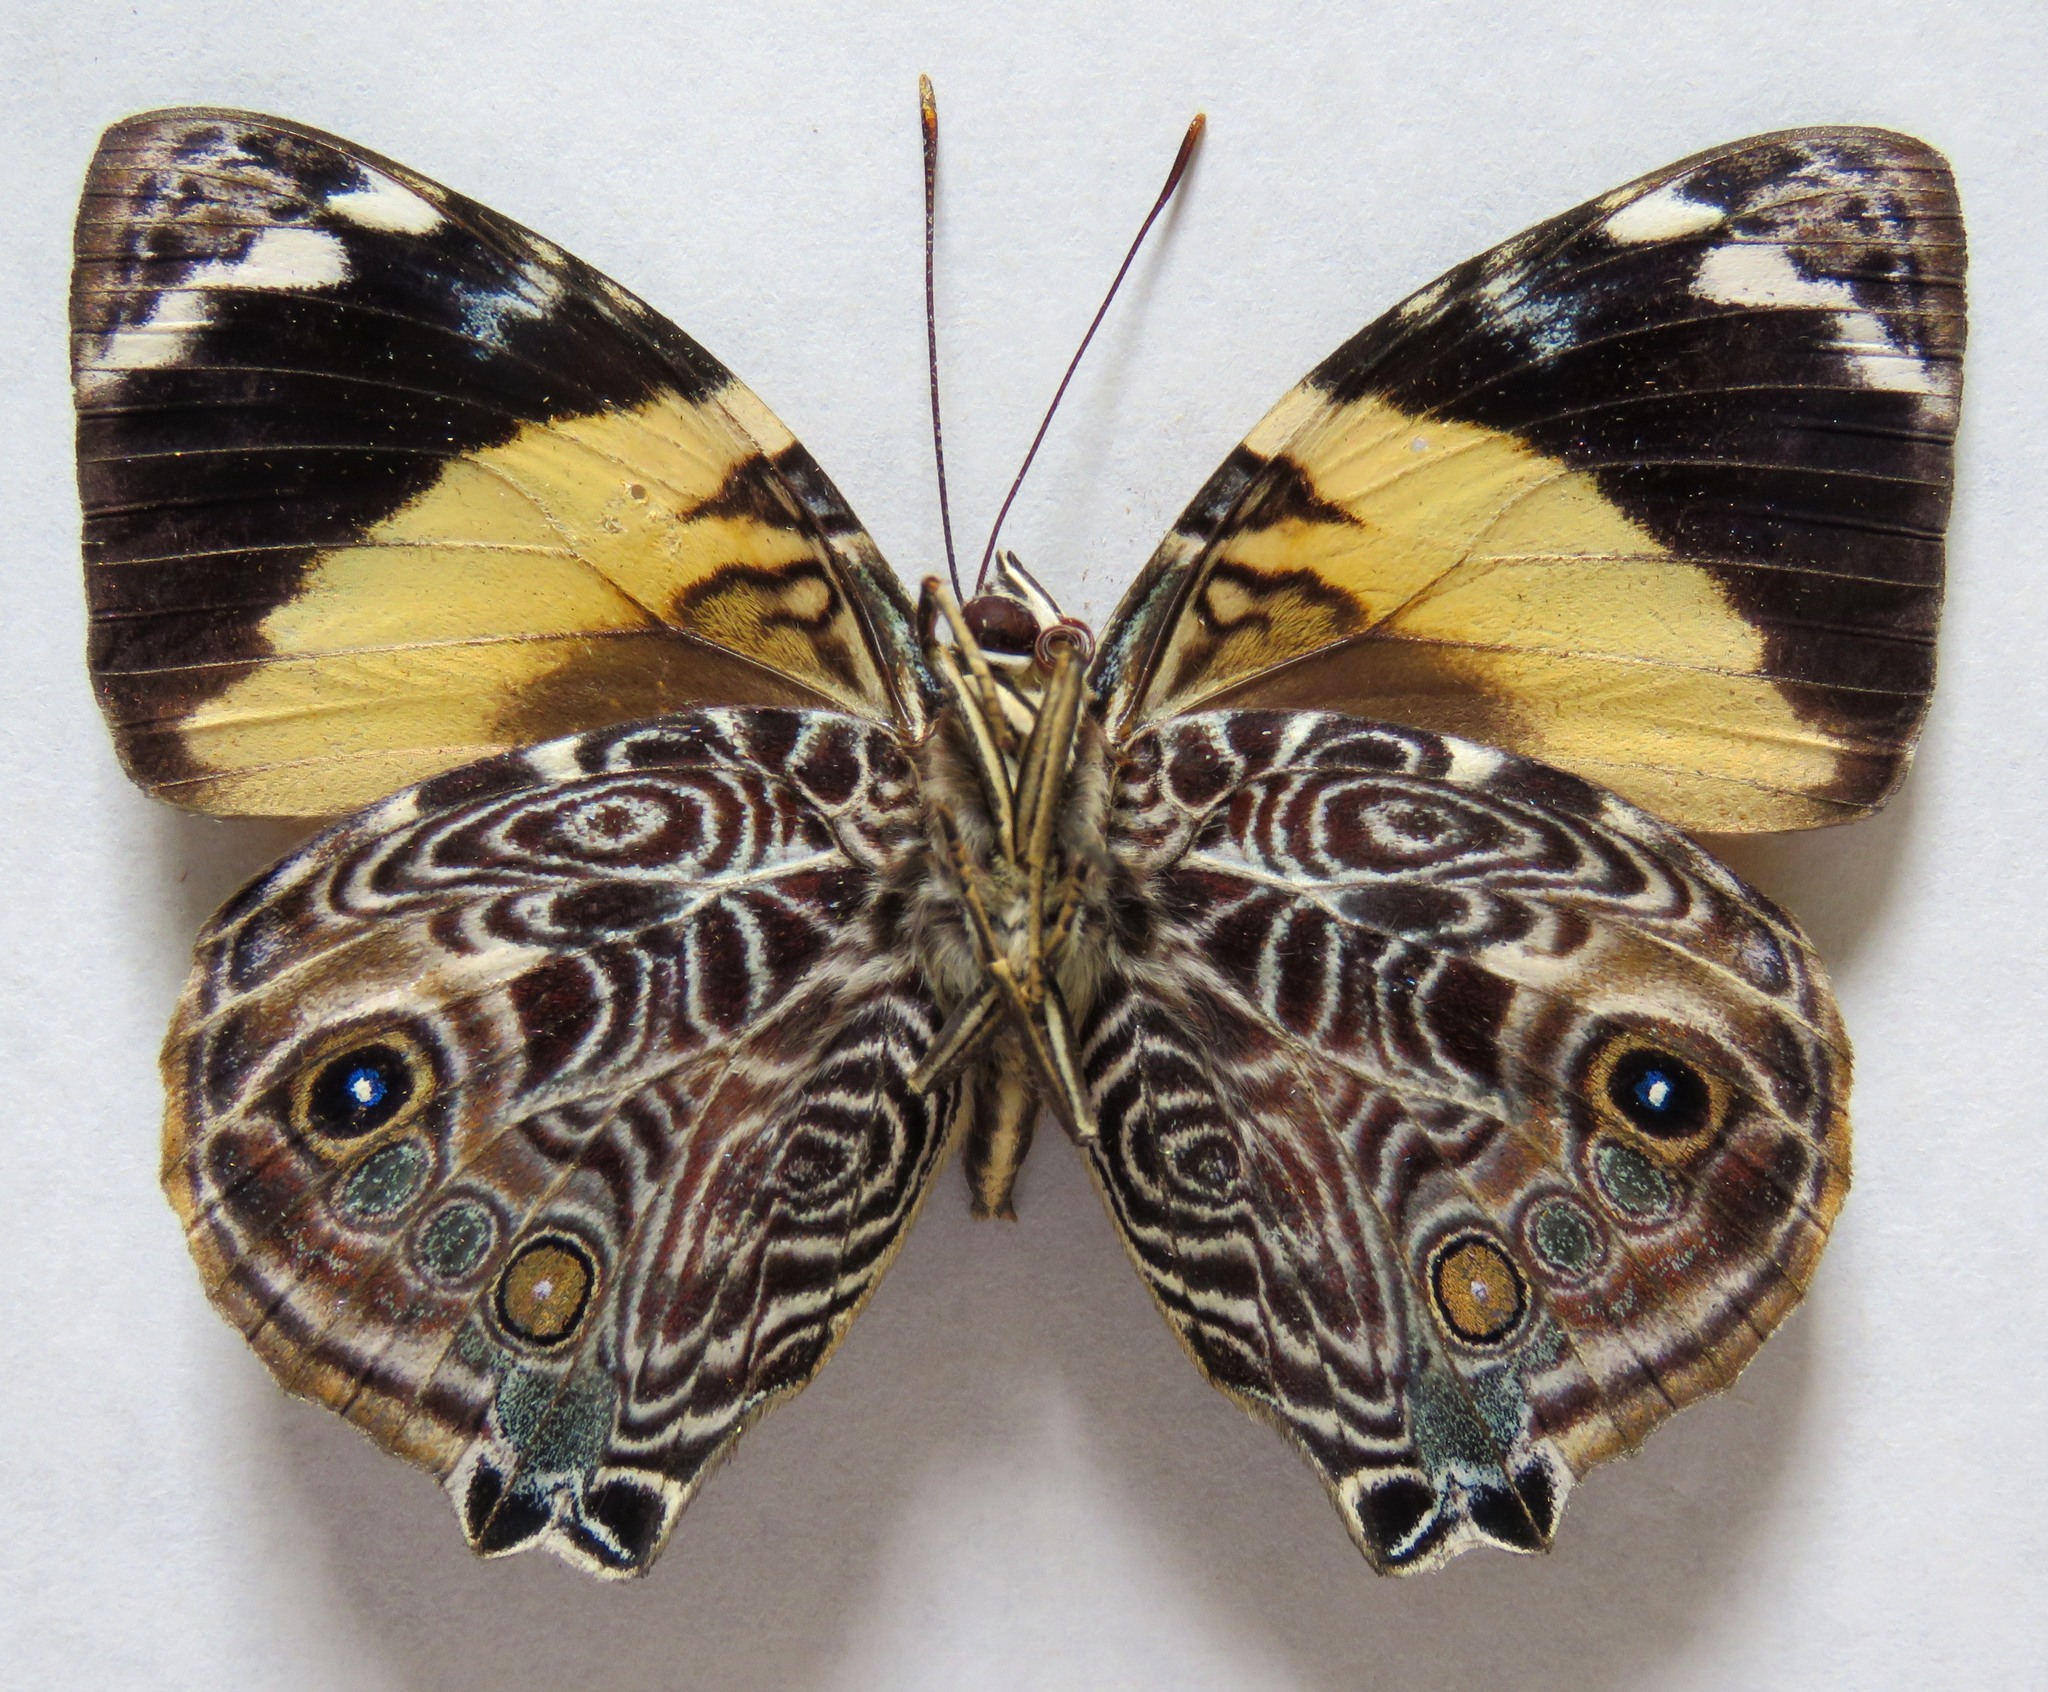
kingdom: Animalia
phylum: Arthropoda
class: Insecta
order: Lepidoptera
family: Nymphalidae
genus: Smyrna
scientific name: Smyrna blomfildia
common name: Blomfild's beauty
